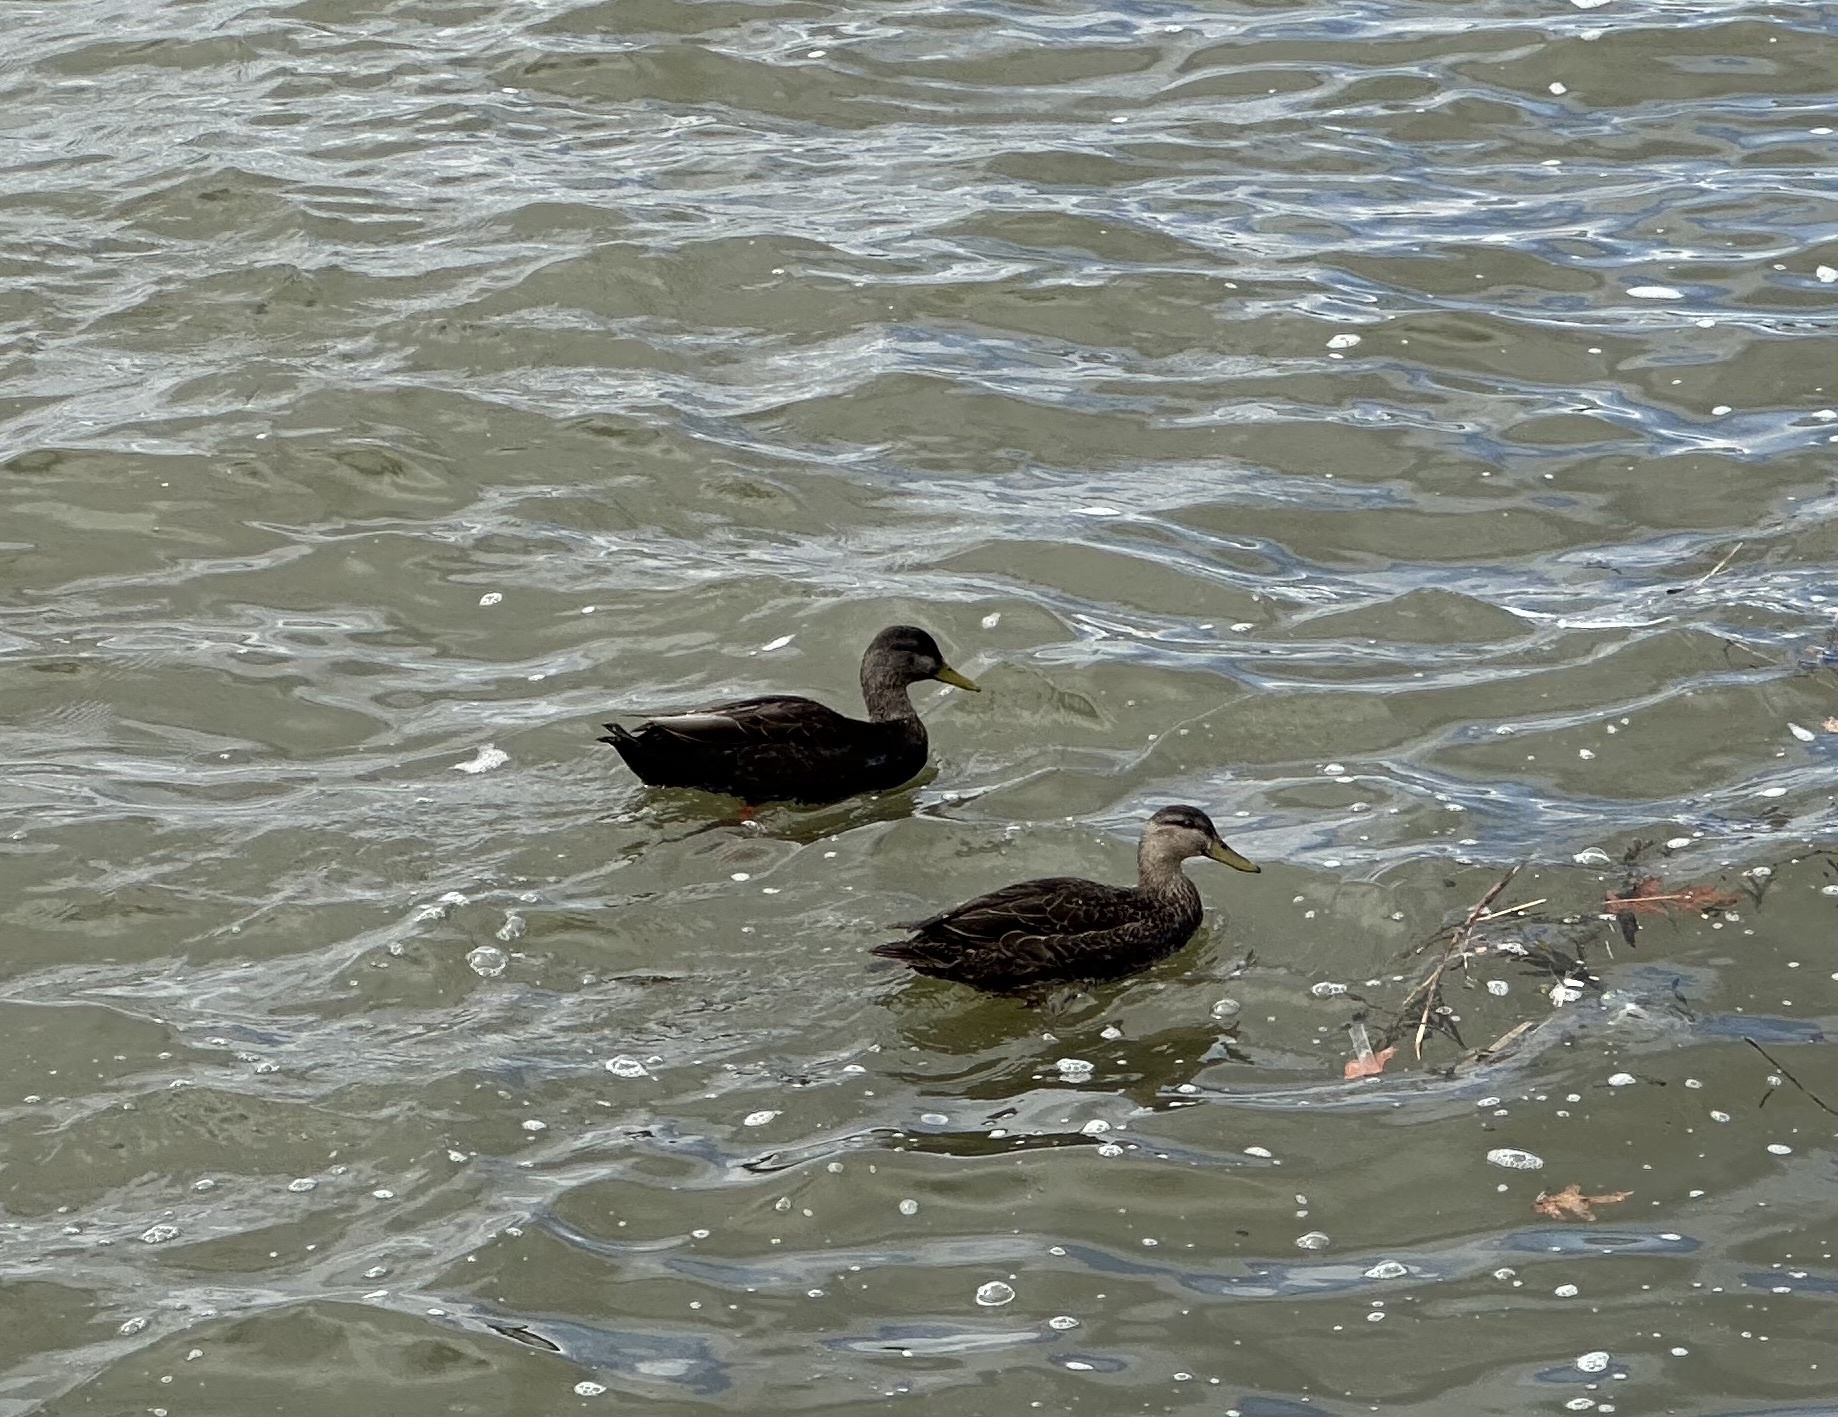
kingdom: Animalia
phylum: Chordata
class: Aves
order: Anseriformes
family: Anatidae
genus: Anas
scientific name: Anas rubripes
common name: American black duck
